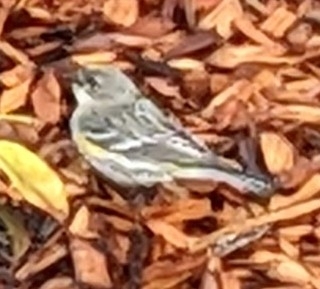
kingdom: Animalia
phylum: Chordata
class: Aves
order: Passeriformes
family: Parulidae
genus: Setophaga
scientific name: Setophaga coronata
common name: Myrtle warbler
